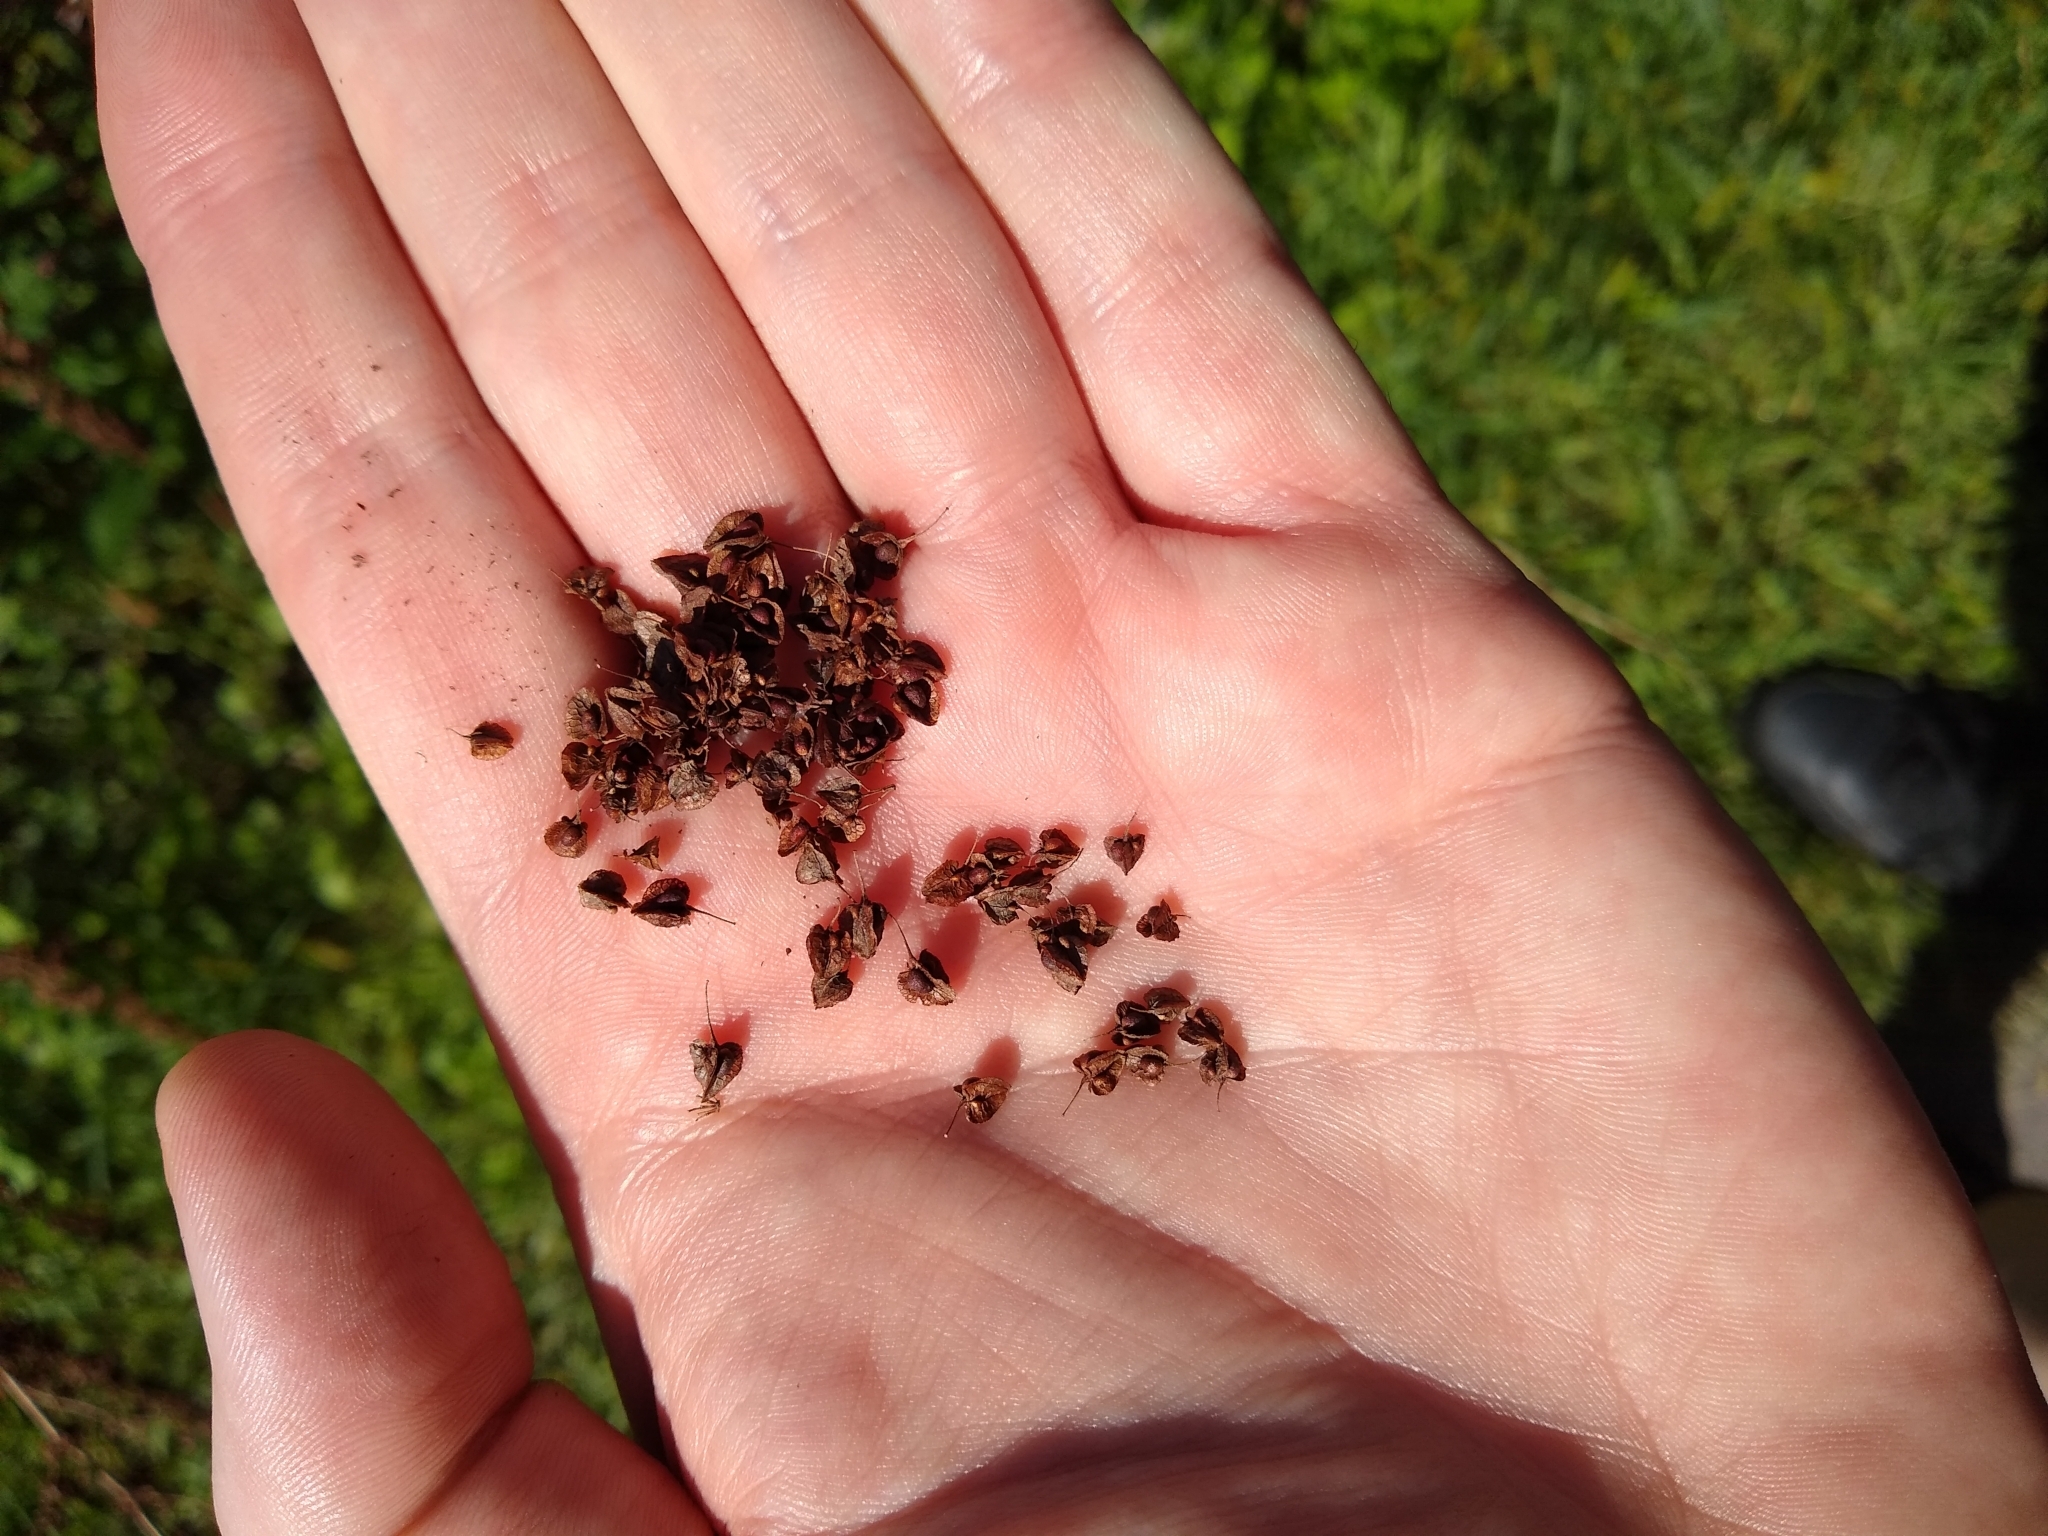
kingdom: Plantae
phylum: Tracheophyta
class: Magnoliopsida
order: Caryophyllales
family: Polygonaceae
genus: Rumex
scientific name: Rumex crispus
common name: Curled dock
